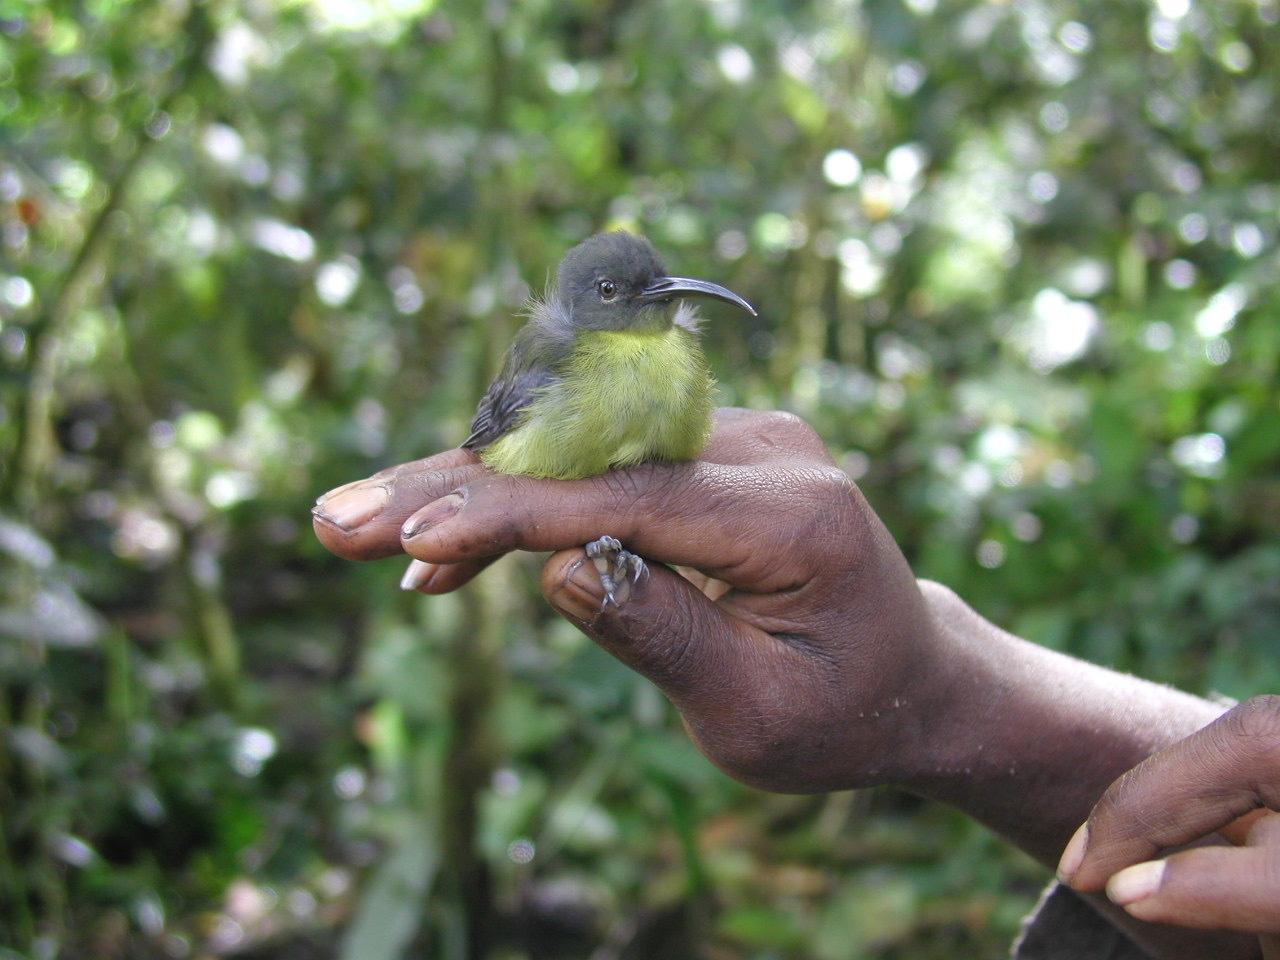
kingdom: Animalia
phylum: Chordata
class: Aves
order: Passeriformes
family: Melanocharitidae
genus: Toxorhamphus
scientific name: Toxorhamphus poliopterus
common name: Slaty-headed longbill
